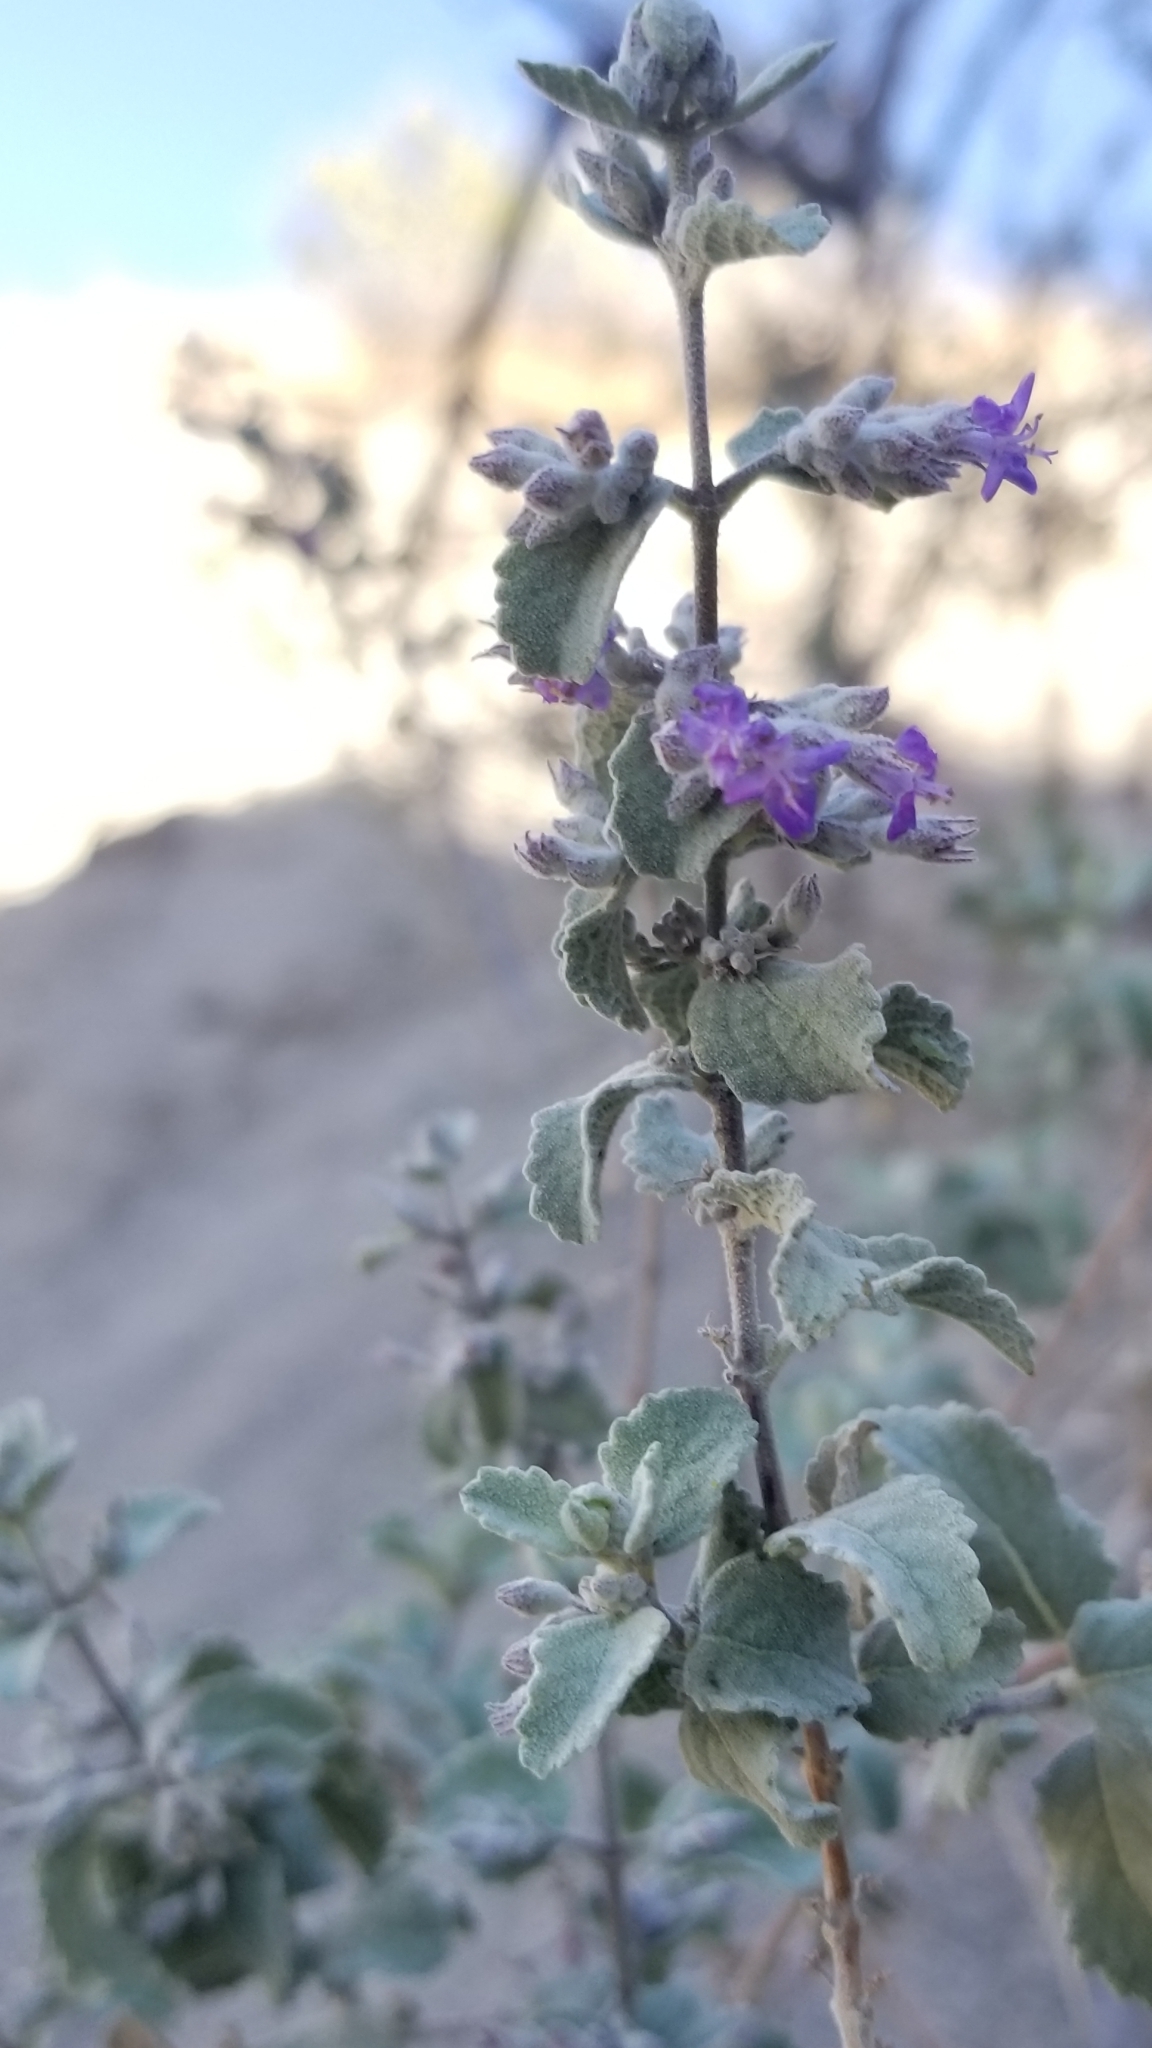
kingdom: Plantae
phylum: Tracheophyta
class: Magnoliopsida
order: Lamiales
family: Lamiaceae
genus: Condea
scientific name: Condea emoryi
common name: Chia
